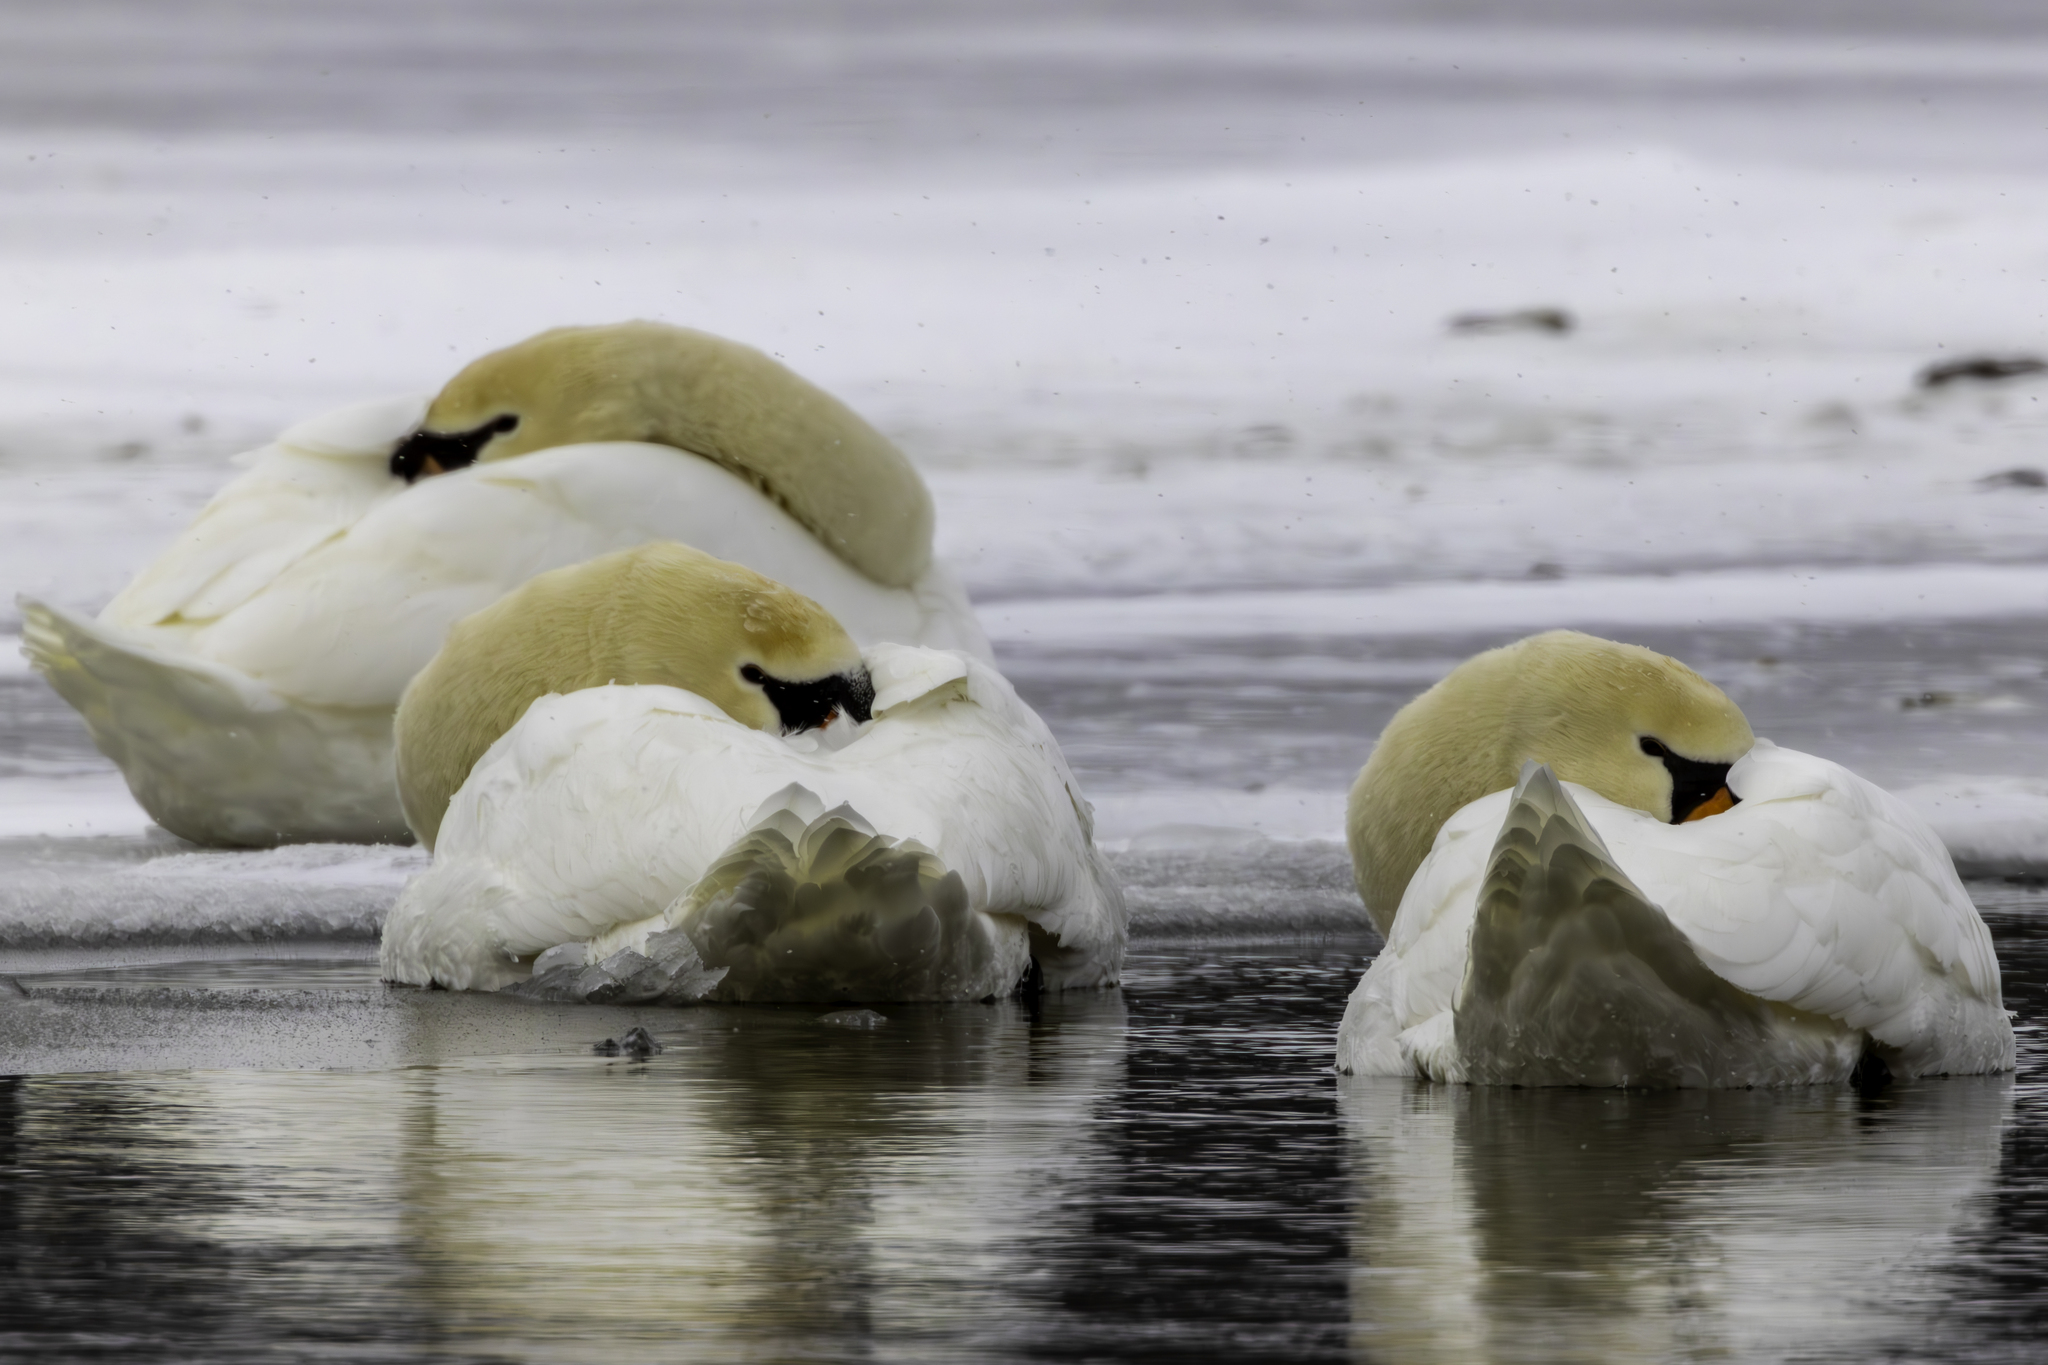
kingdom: Animalia
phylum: Chordata
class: Aves
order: Anseriformes
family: Anatidae
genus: Cygnus
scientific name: Cygnus olor
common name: Mute swan
